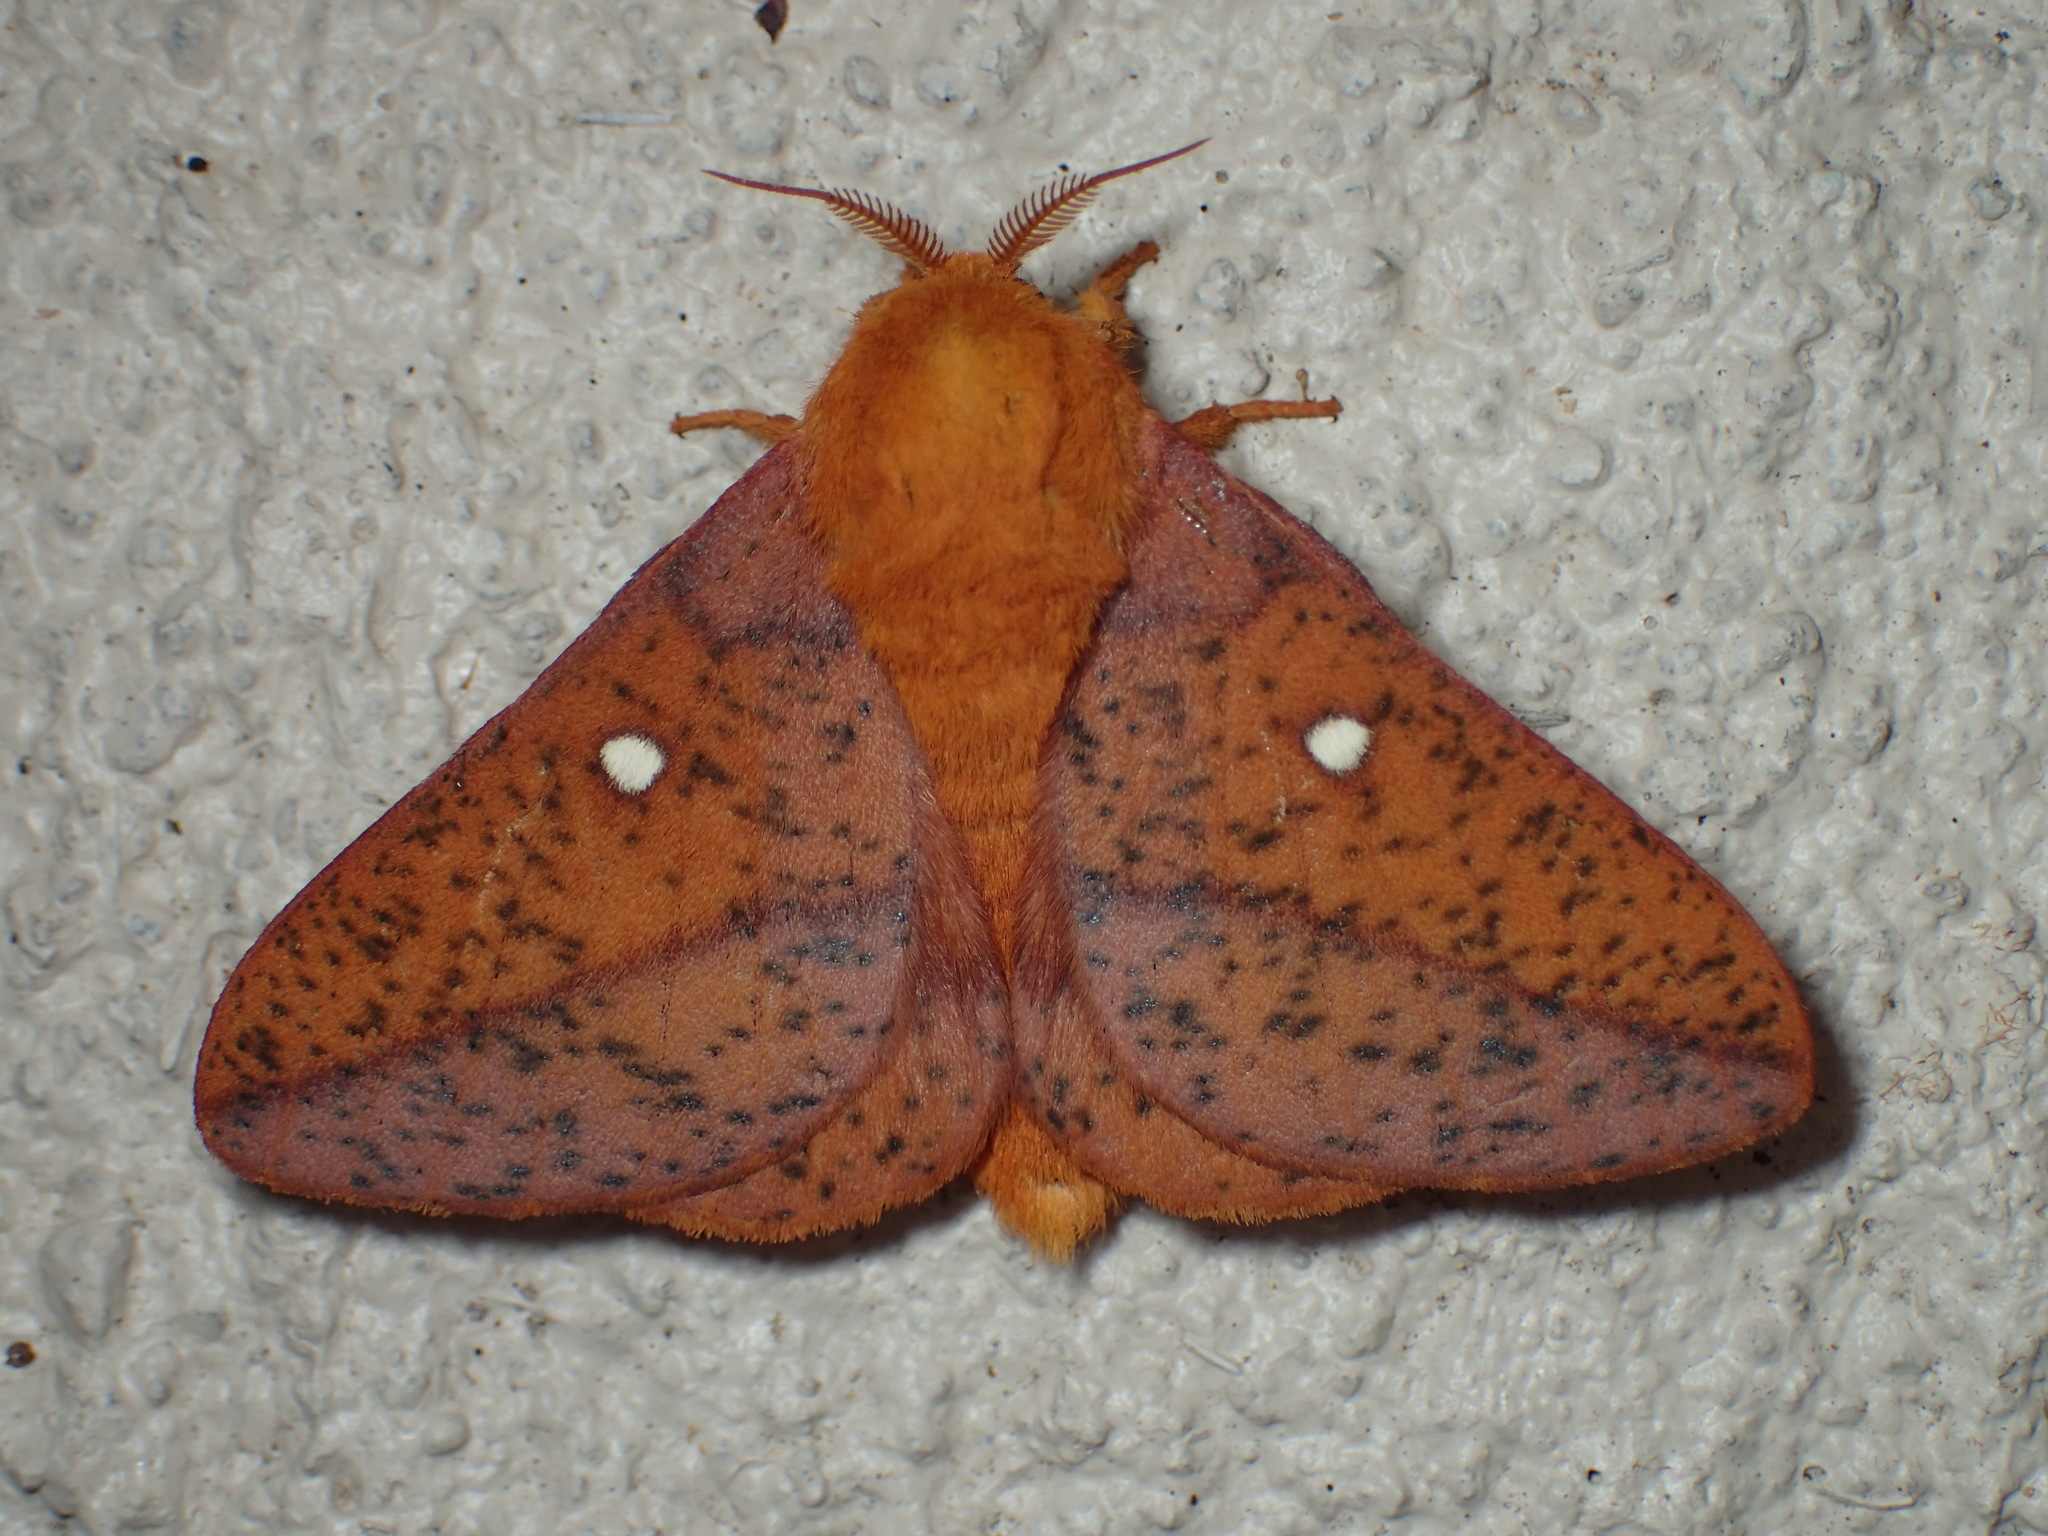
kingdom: Animalia
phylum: Arthropoda
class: Insecta
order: Lepidoptera
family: Saturniidae
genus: Anisota
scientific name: Anisota stigma
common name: Spiny oakworm moth
